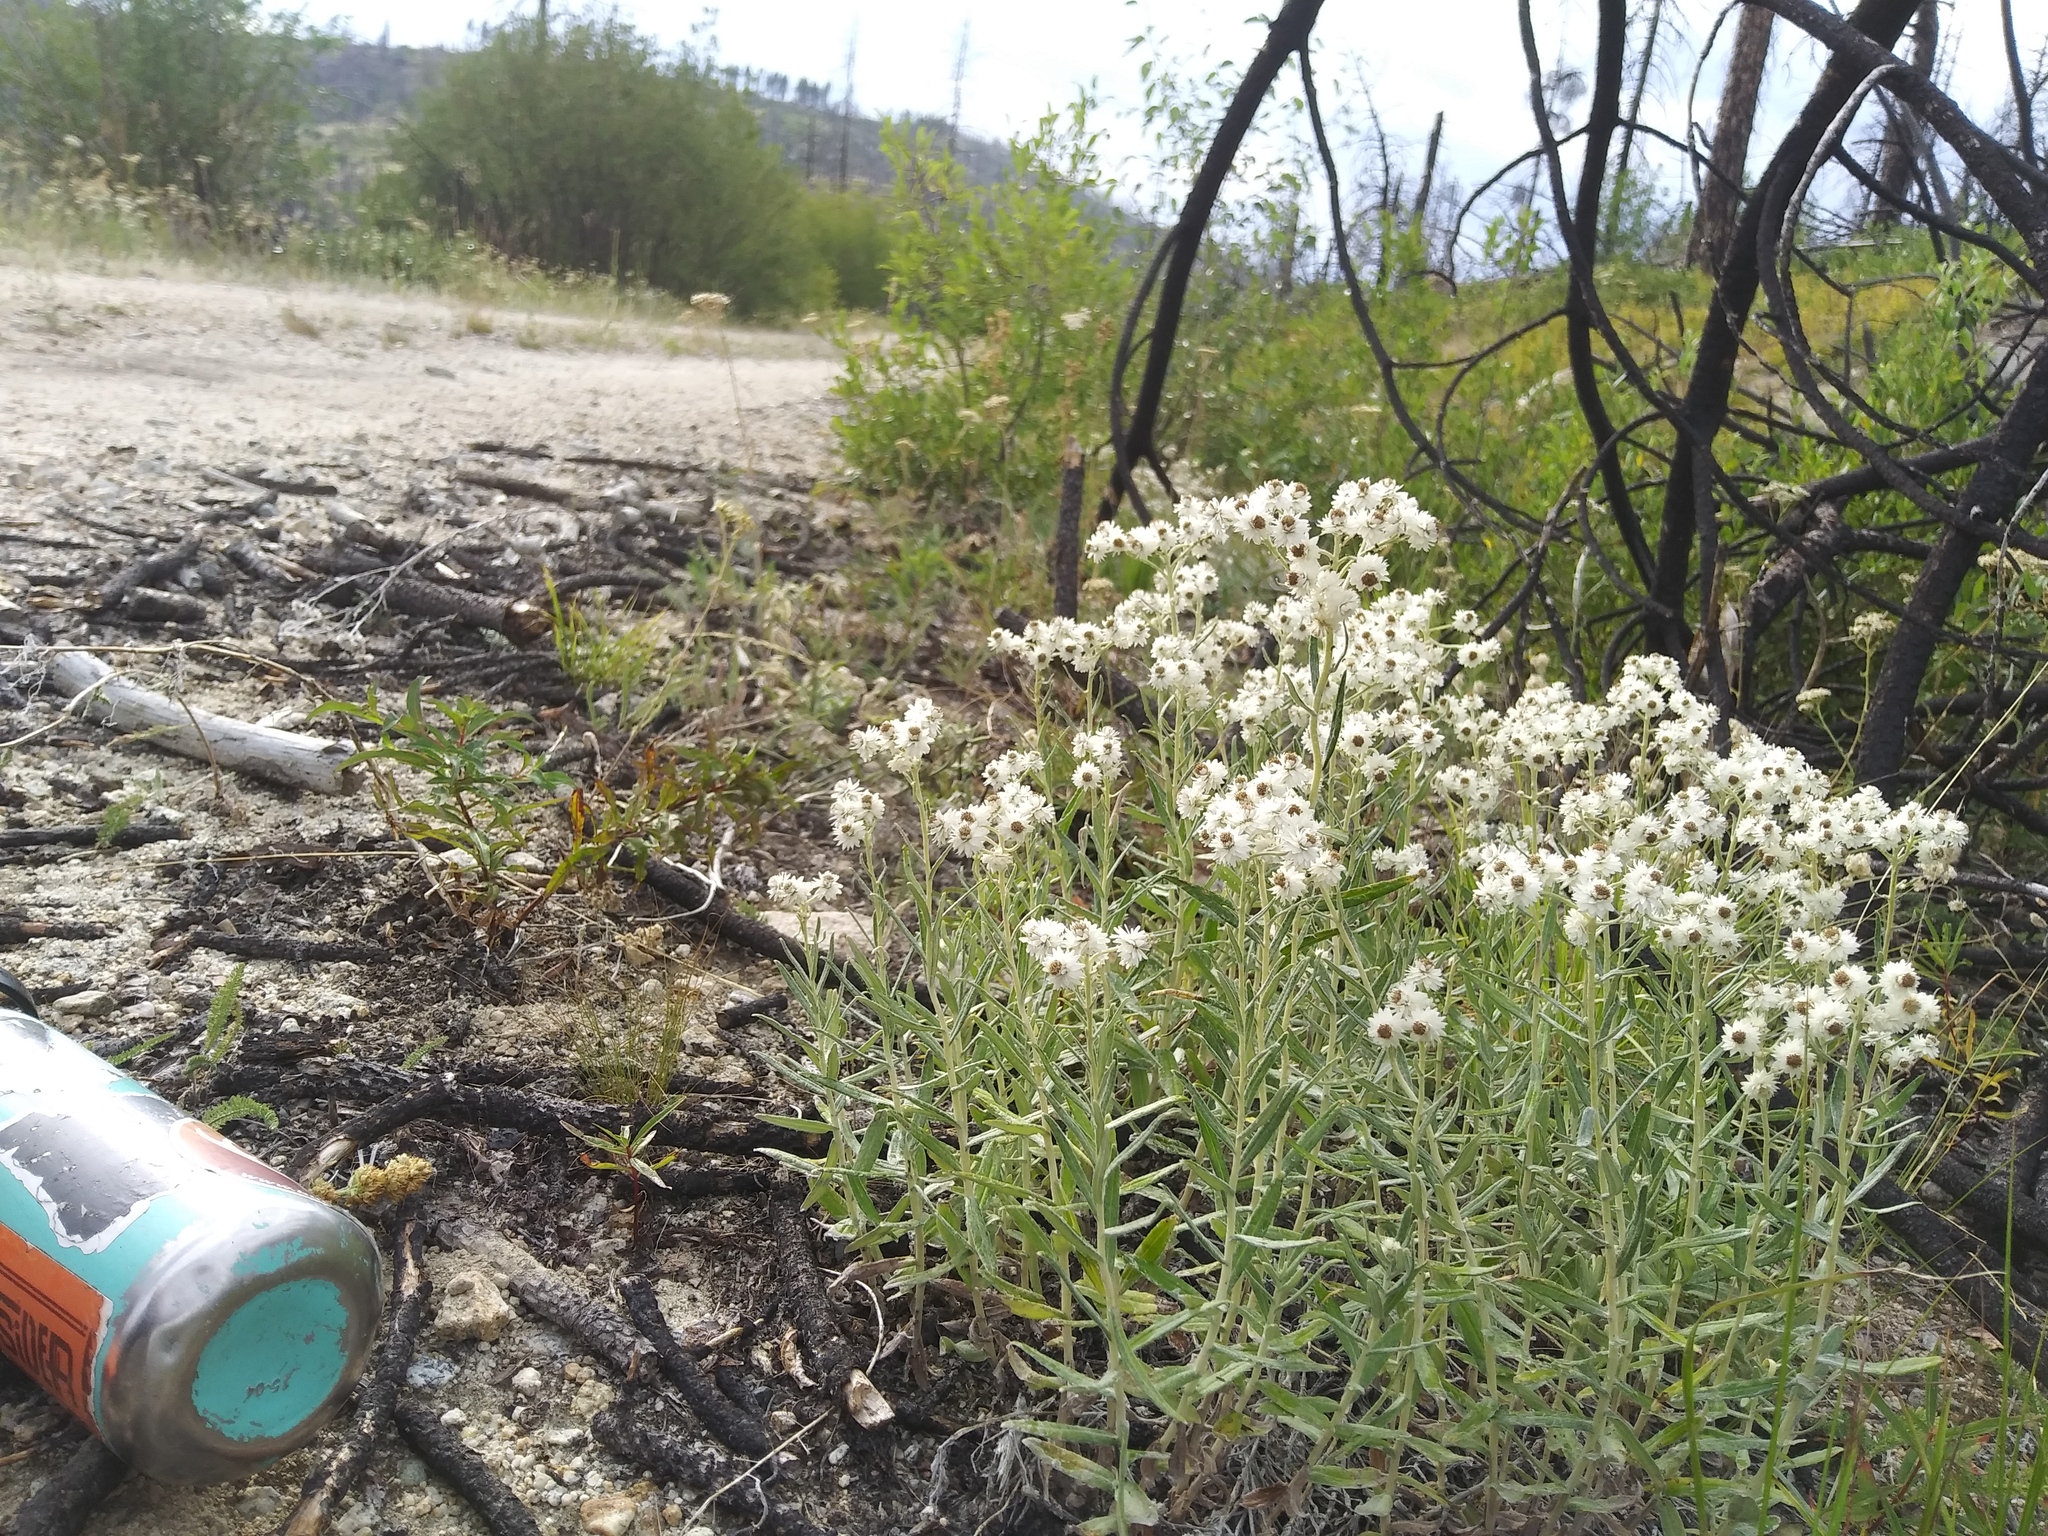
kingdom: Plantae
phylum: Tracheophyta
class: Magnoliopsida
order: Asterales
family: Asteraceae
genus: Anaphalis
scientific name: Anaphalis margaritacea
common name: Pearly everlasting
